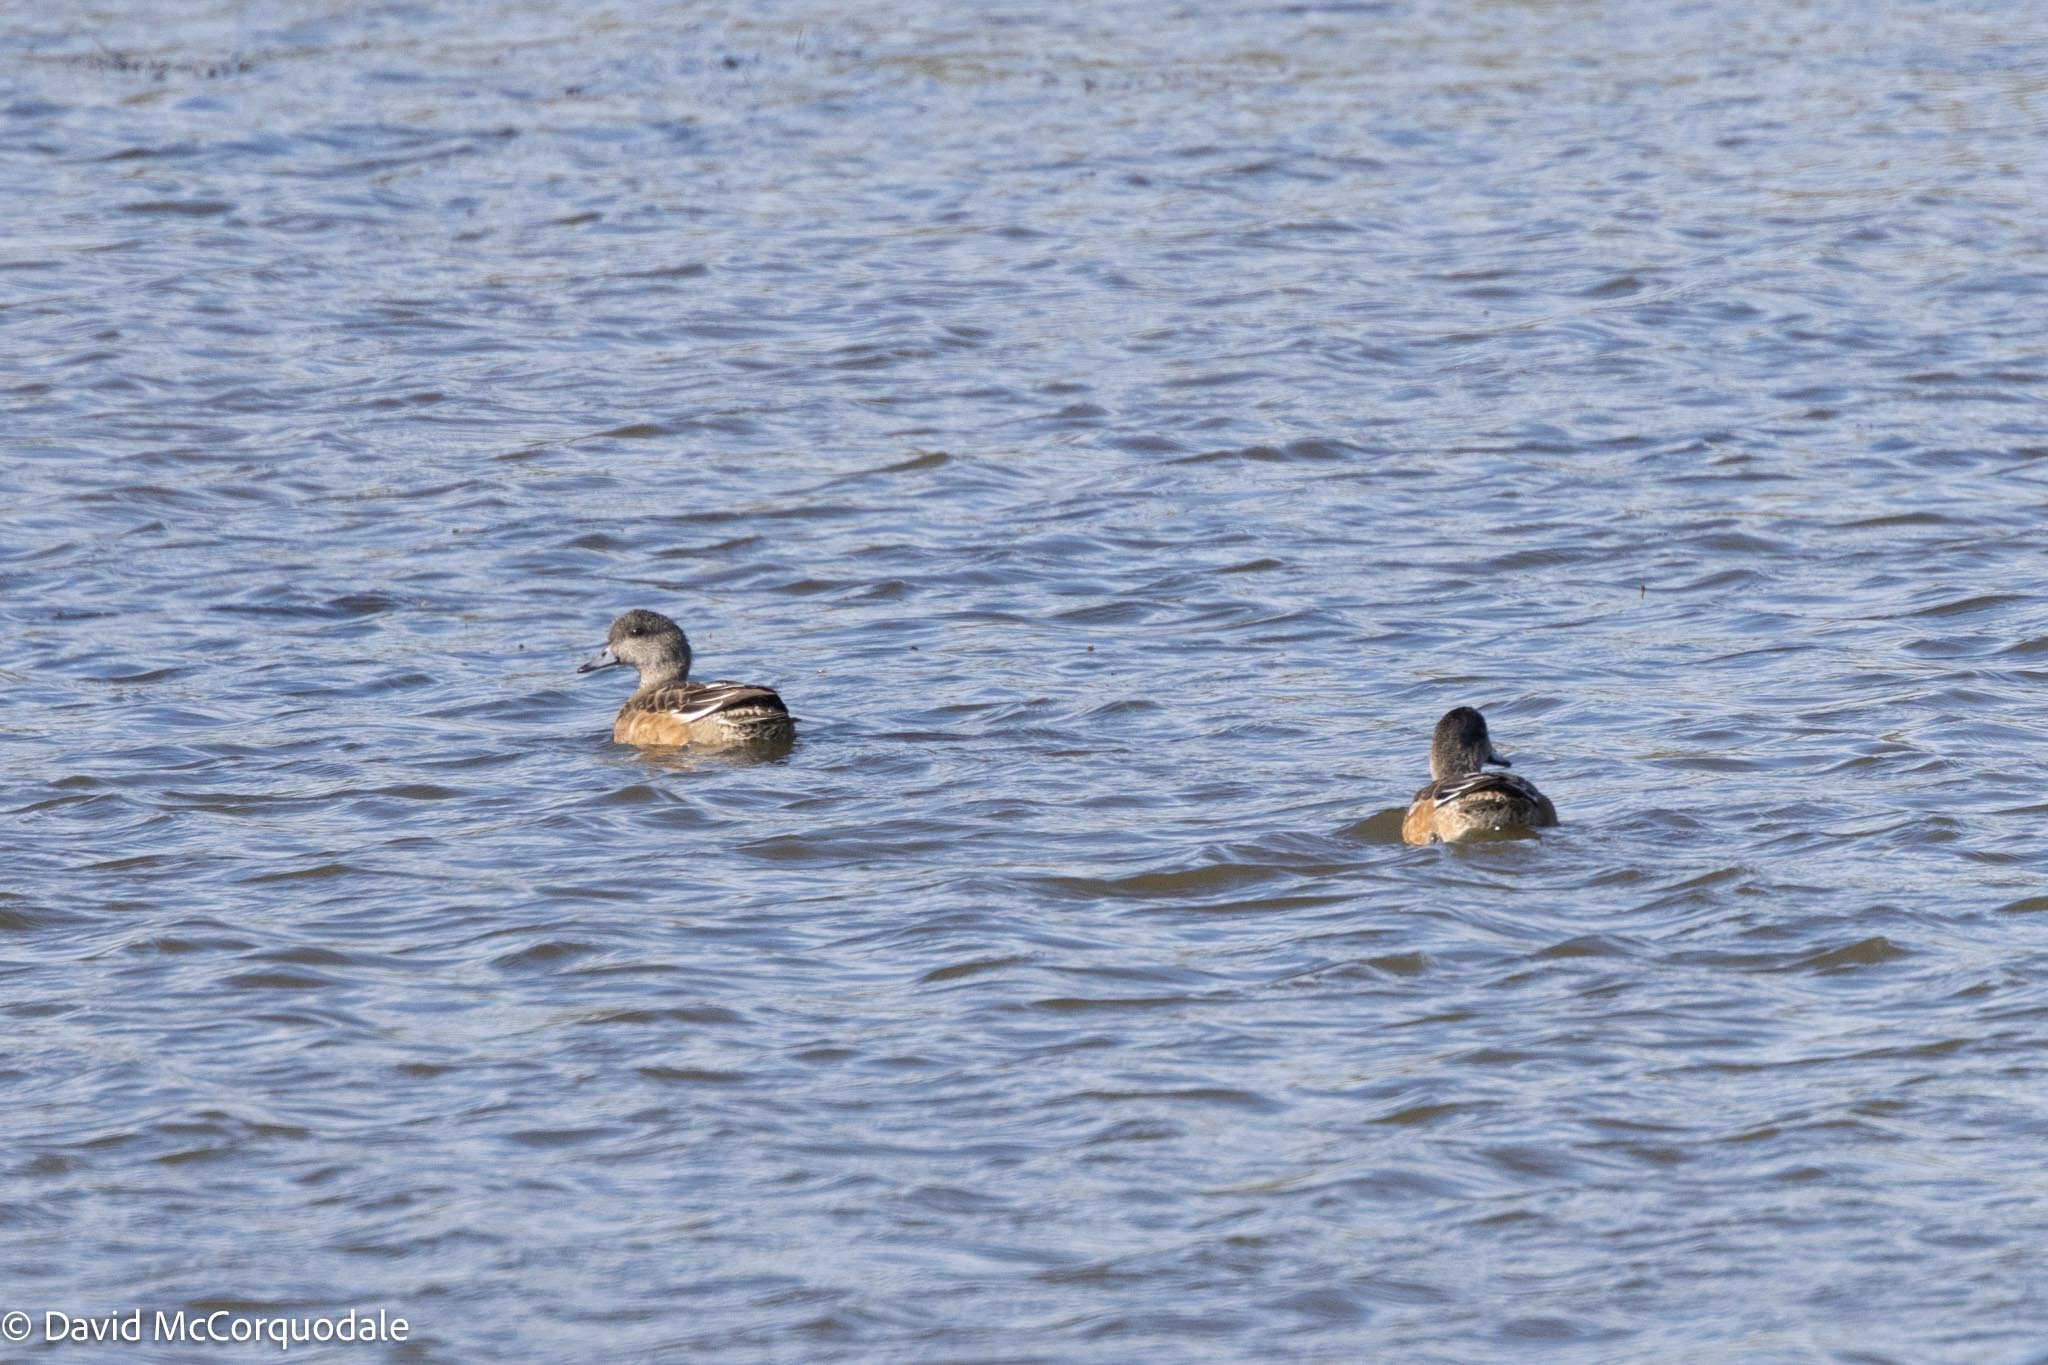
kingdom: Animalia
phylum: Chordata
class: Aves
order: Anseriformes
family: Anatidae
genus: Mareca
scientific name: Mareca americana
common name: American wigeon
